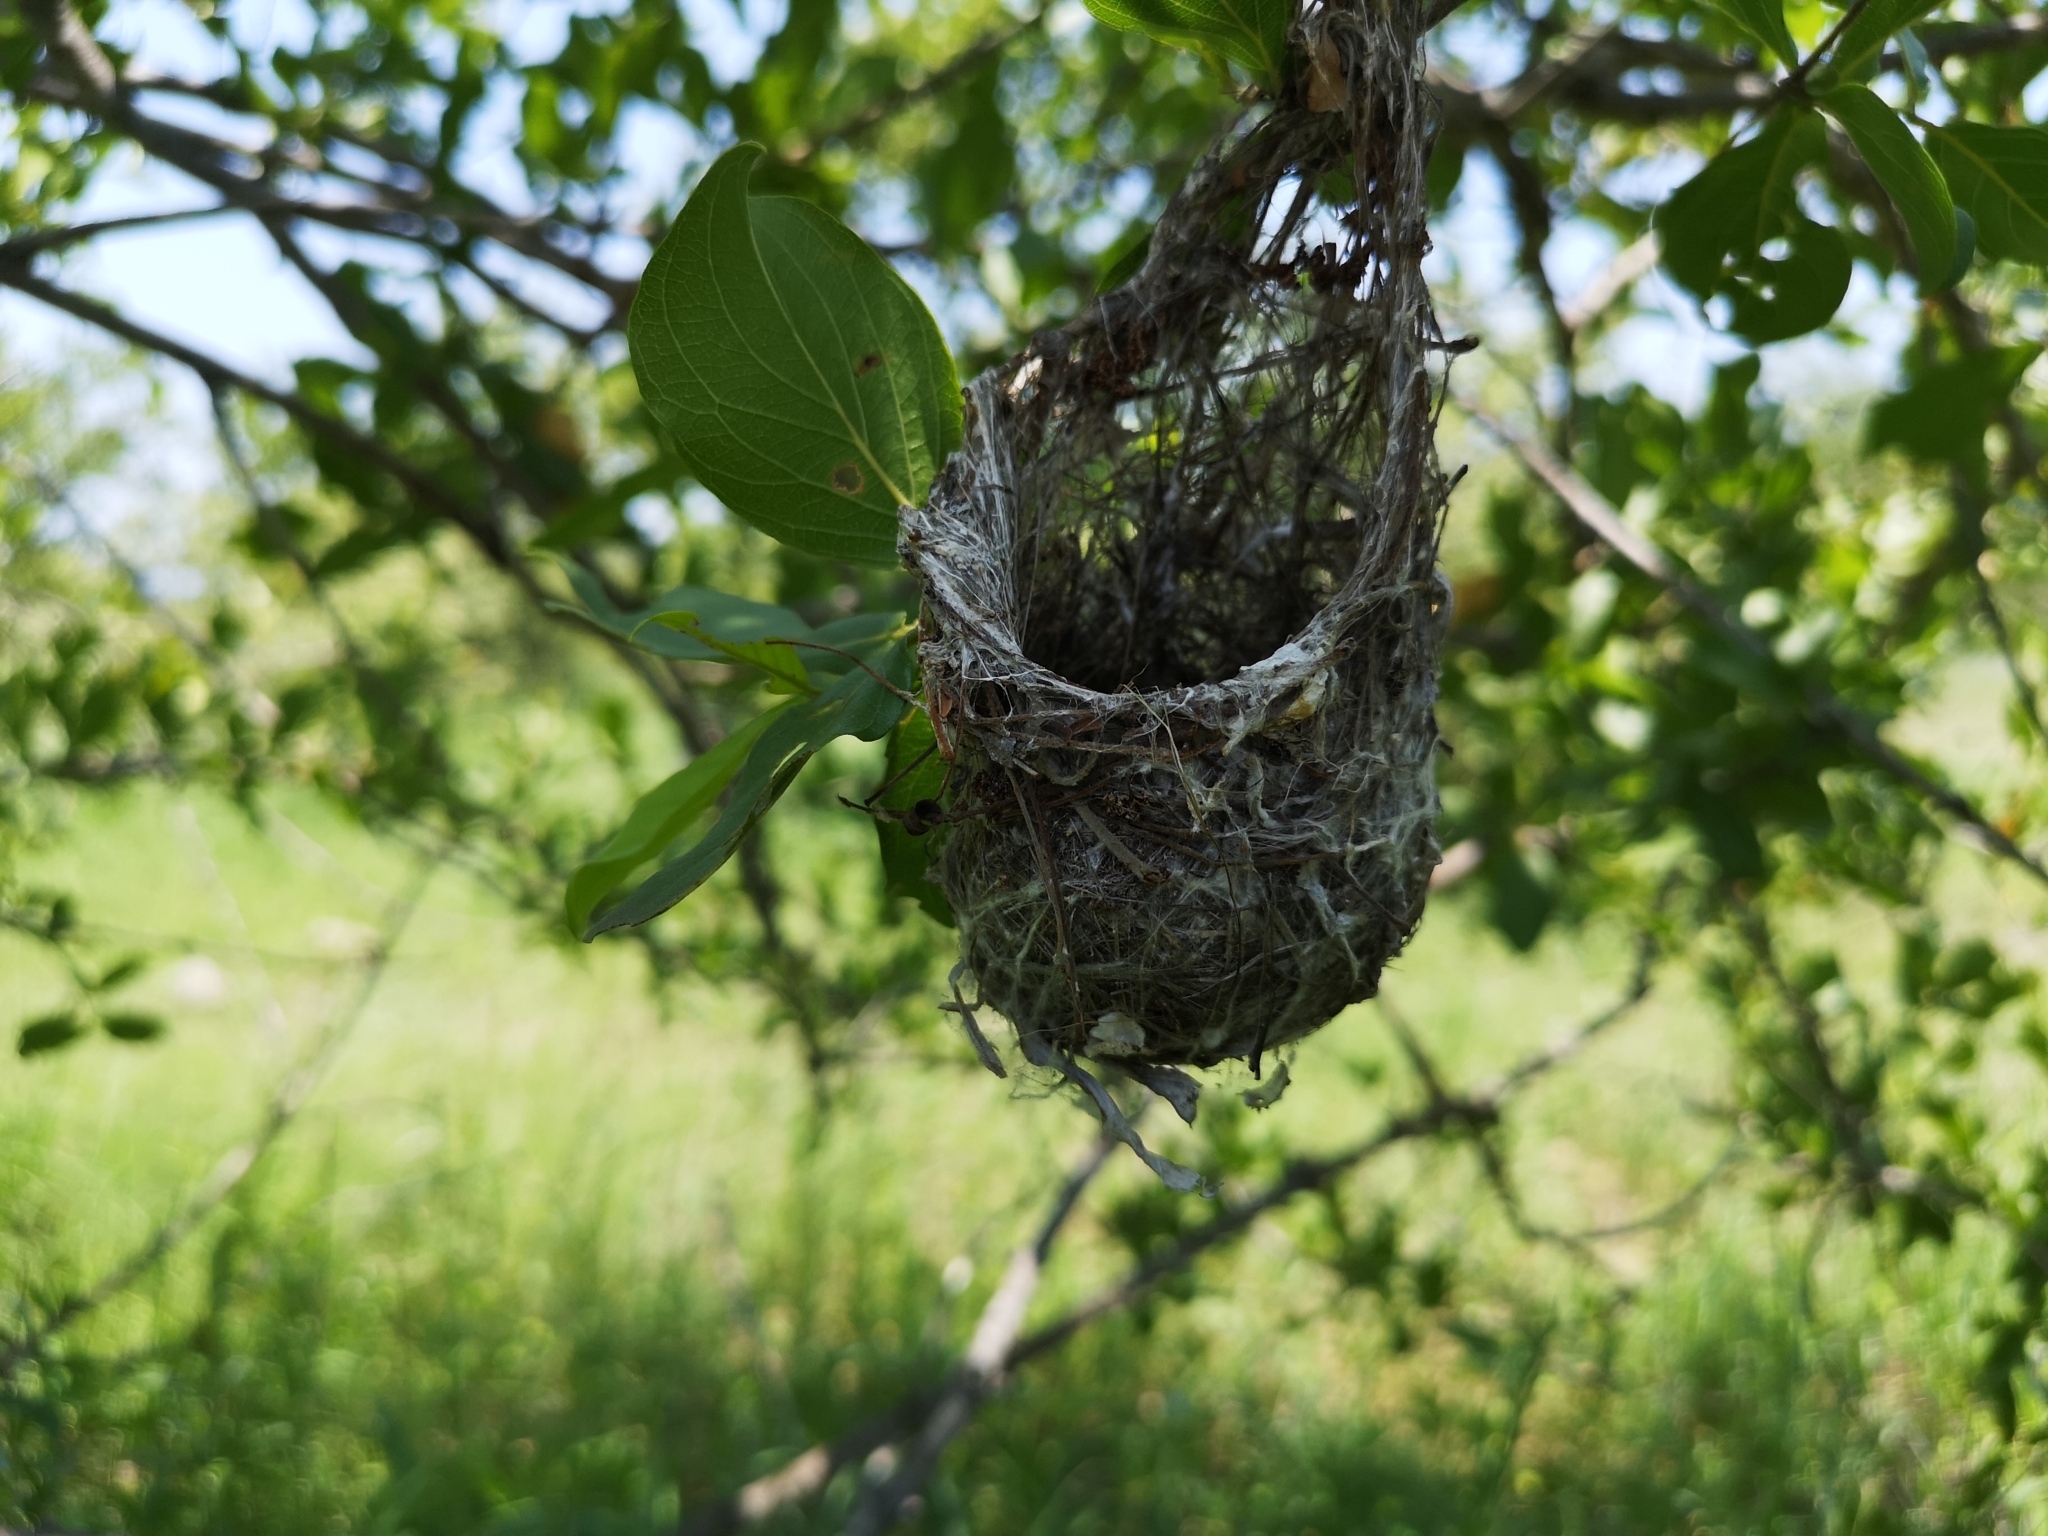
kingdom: Animalia
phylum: Chordata
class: Aves
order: Passeriformes
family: Macrosphenidae
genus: Sylvietta
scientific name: Sylvietta rufescens
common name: Long-billed crombec
